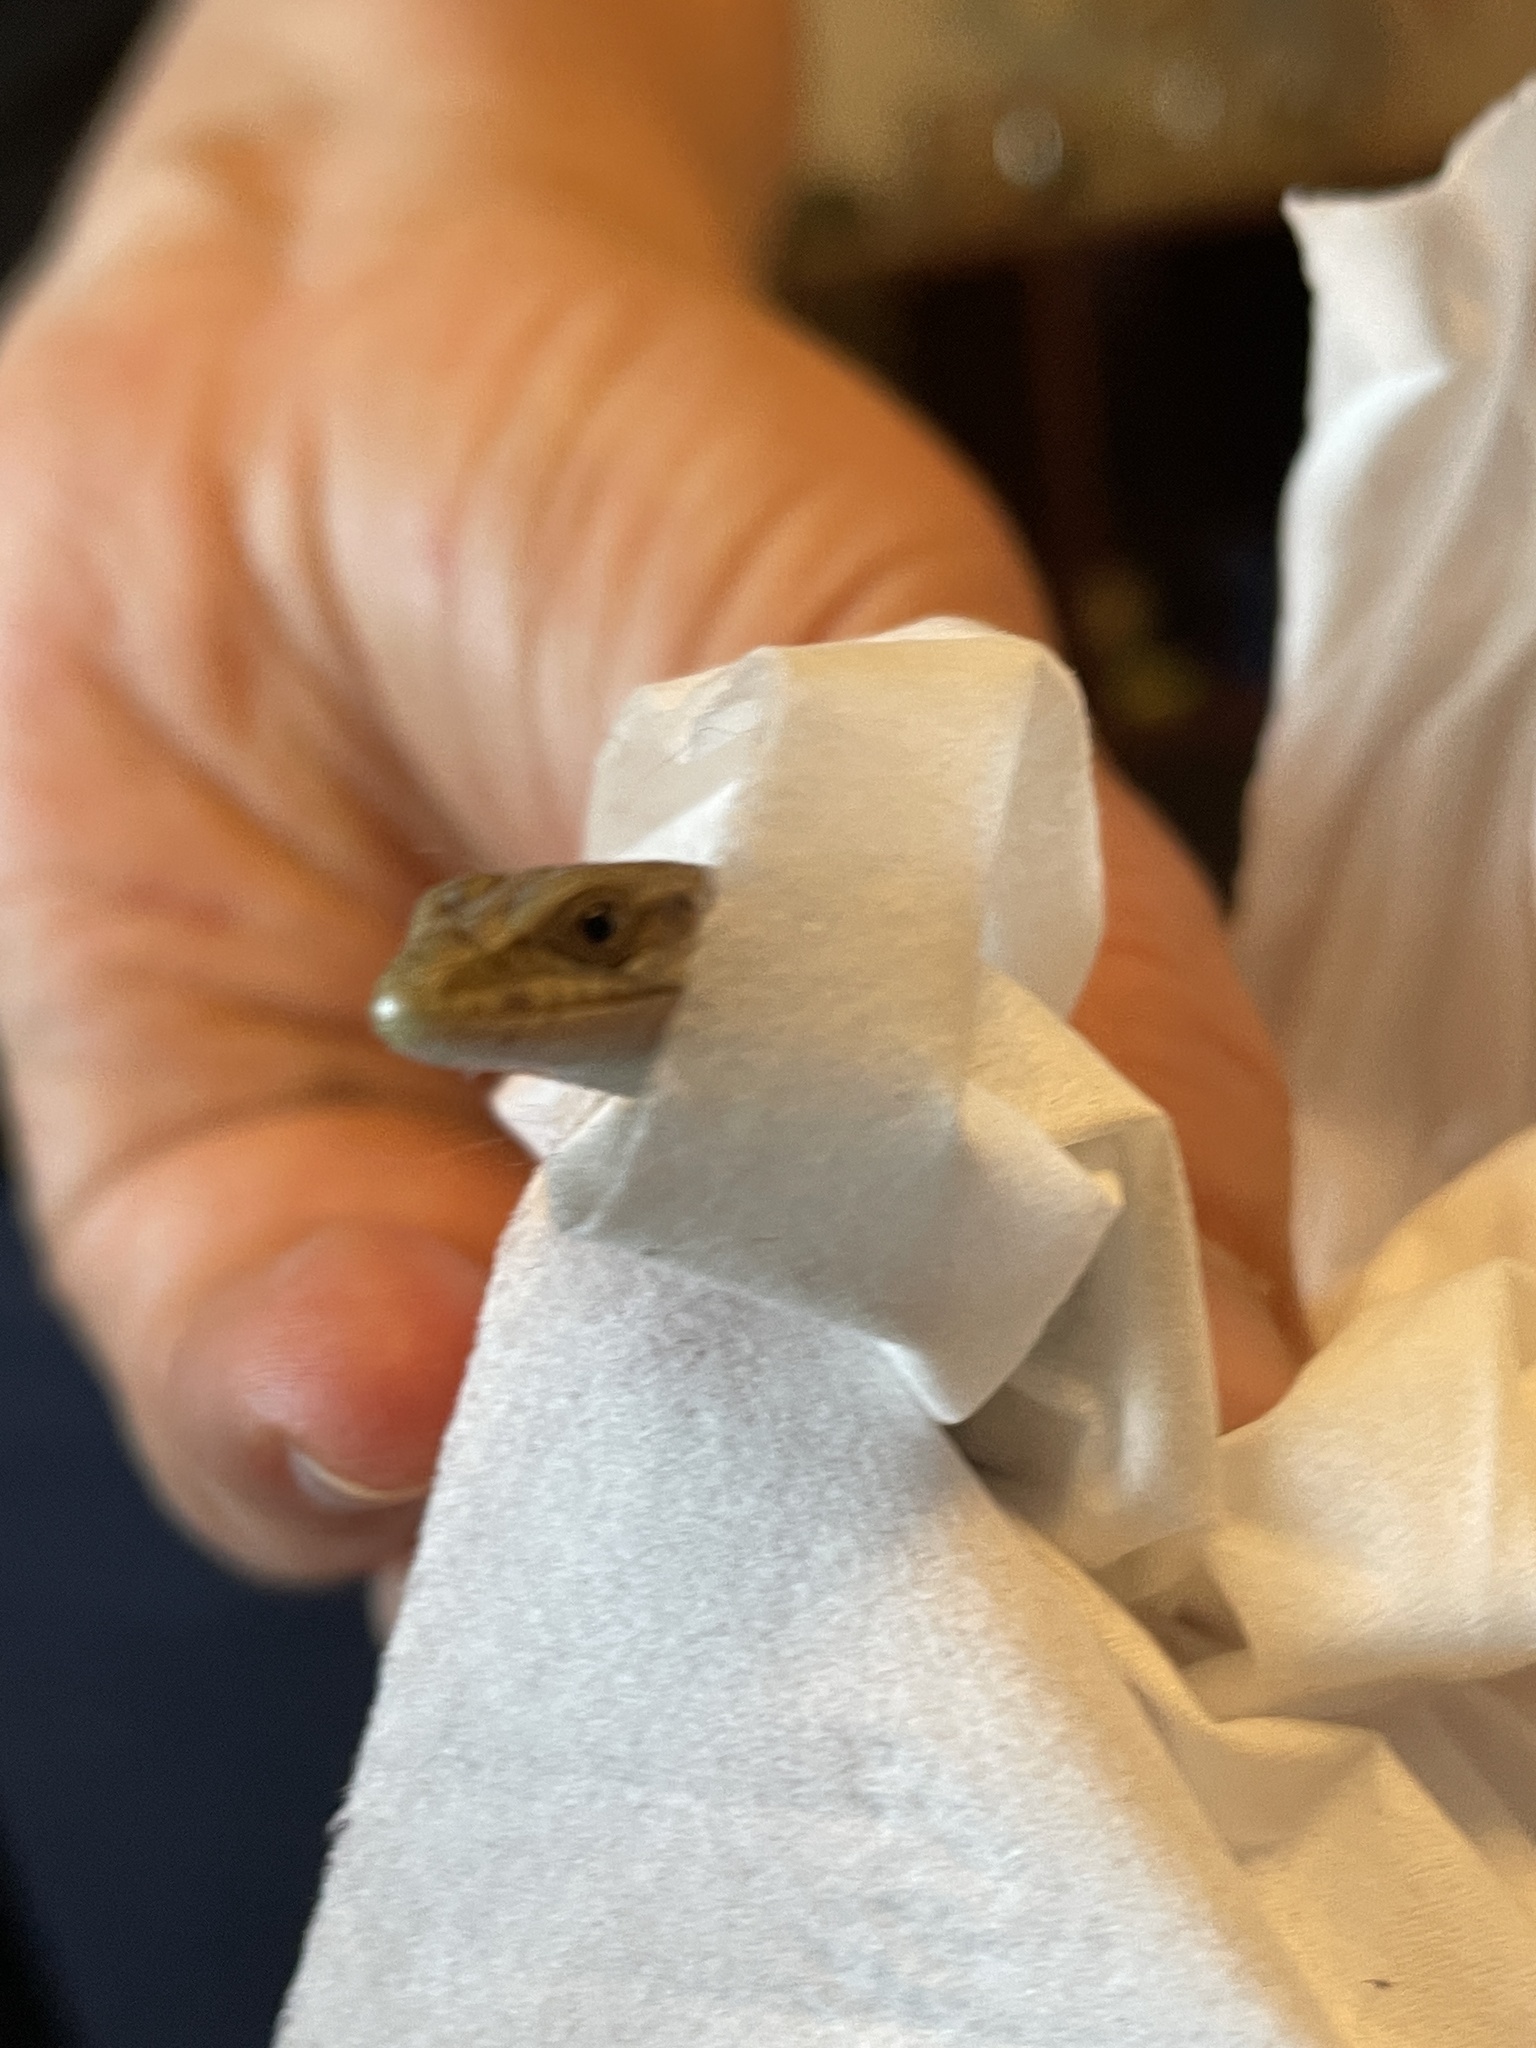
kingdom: Animalia
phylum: Chordata
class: Squamata
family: Anguidae
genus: Elgaria
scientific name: Elgaria multicarinata
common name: Southern alligator lizard
